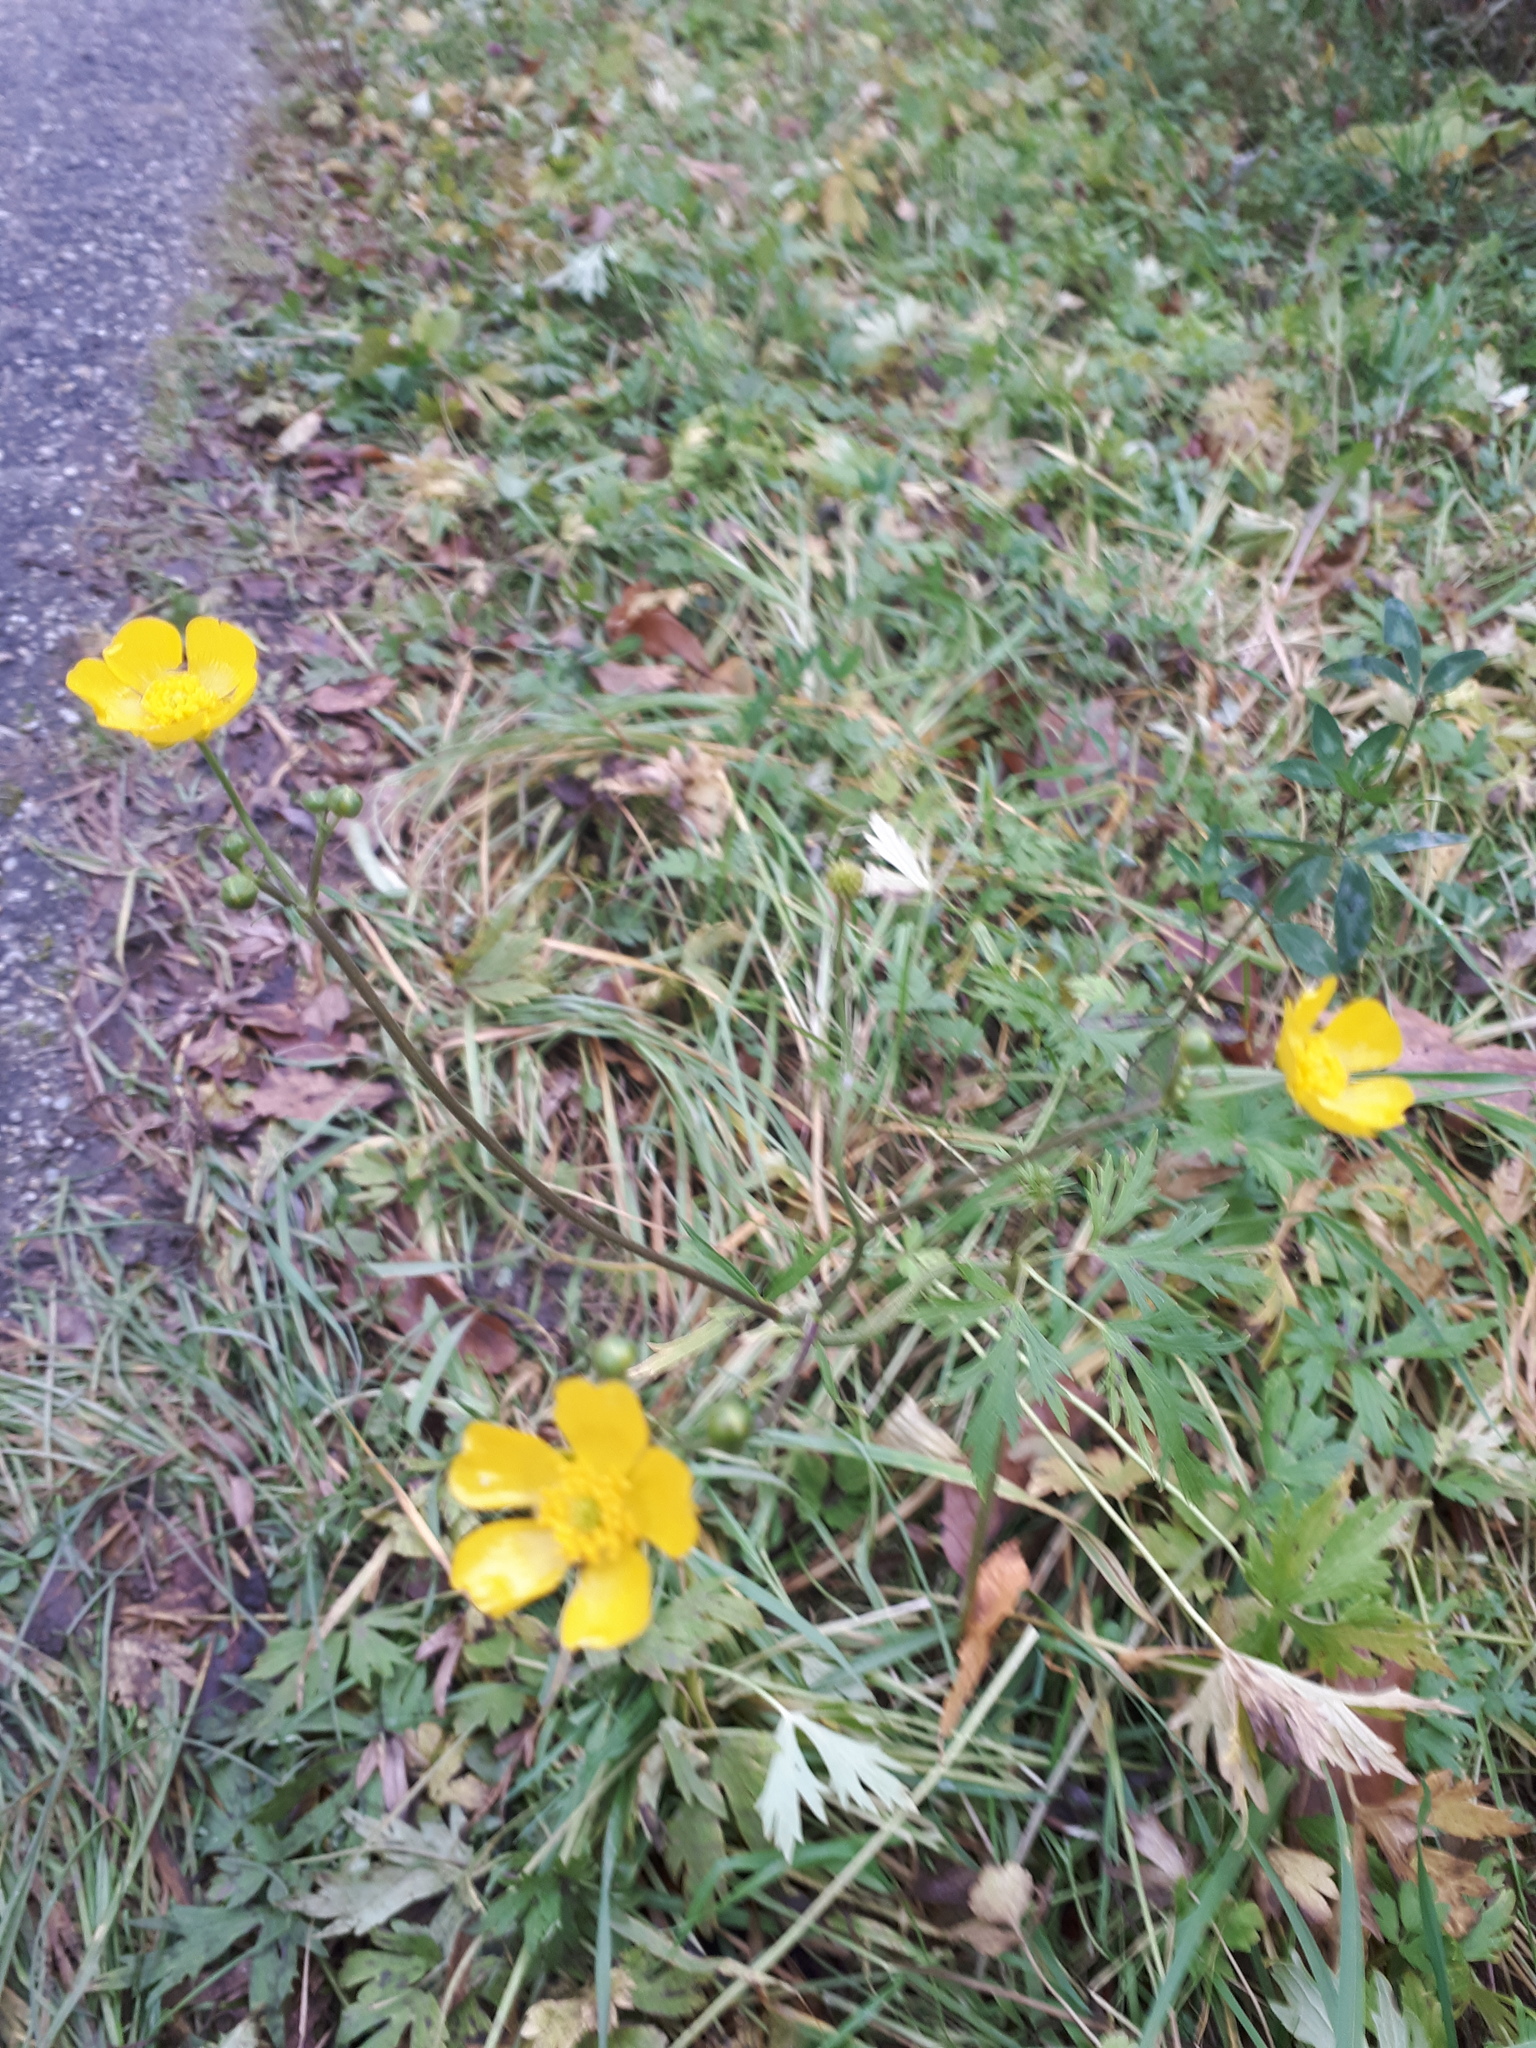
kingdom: Plantae
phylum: Tracheophyta
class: Magnoliopsida
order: Ranunculales
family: Ranunculaceae
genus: Ranunculus
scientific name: Ranunculus acris
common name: Meadow buttercup
